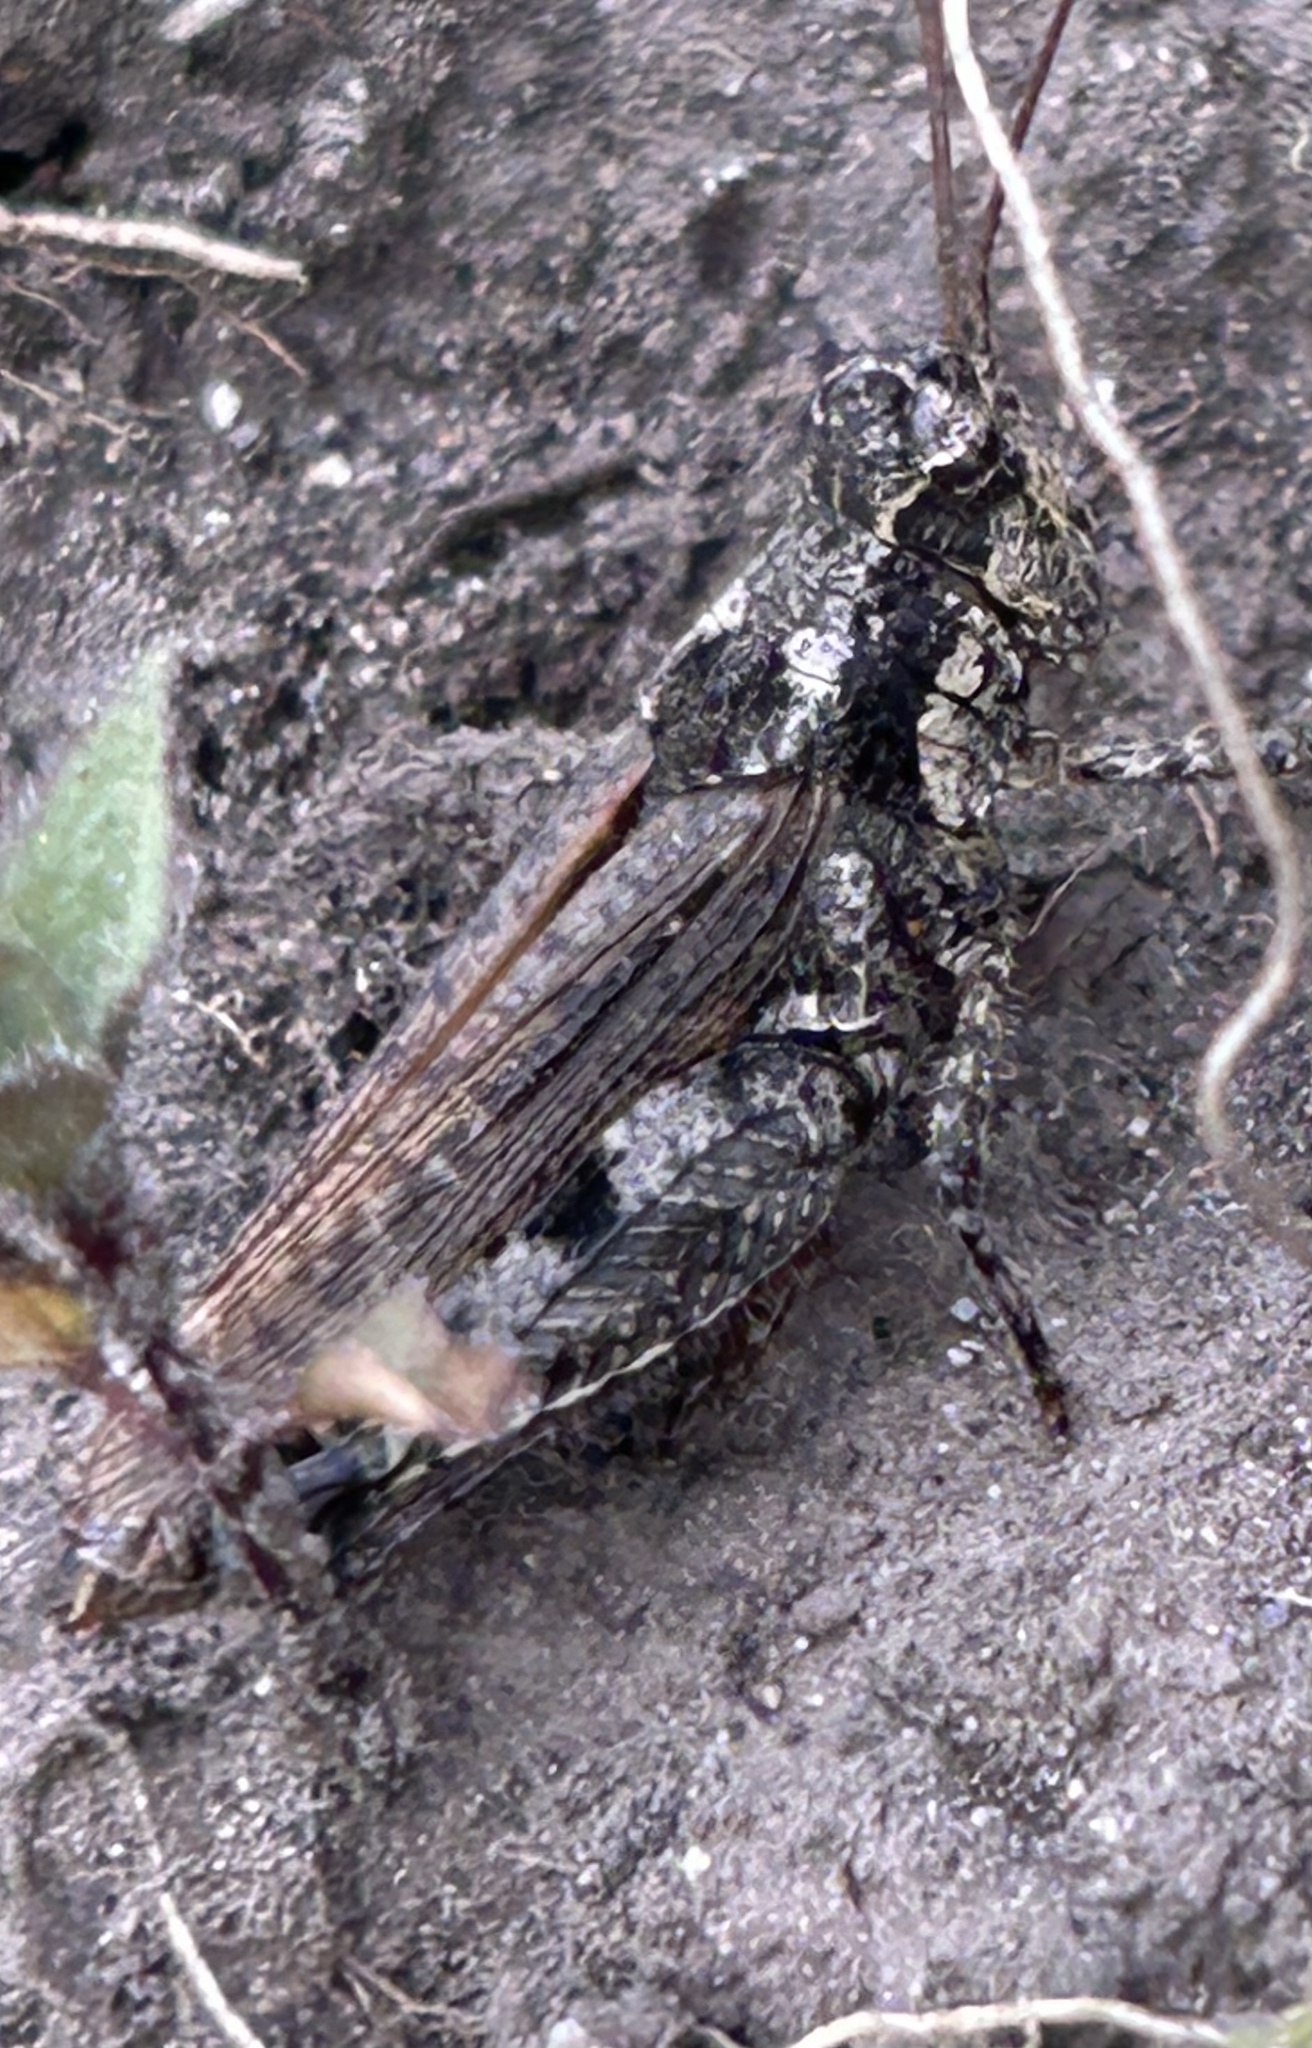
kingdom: Animalia
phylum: Arthropoda
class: Insecta
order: Orthoptera
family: Acrididae
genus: Baeacris
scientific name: Baeacris punctulata
